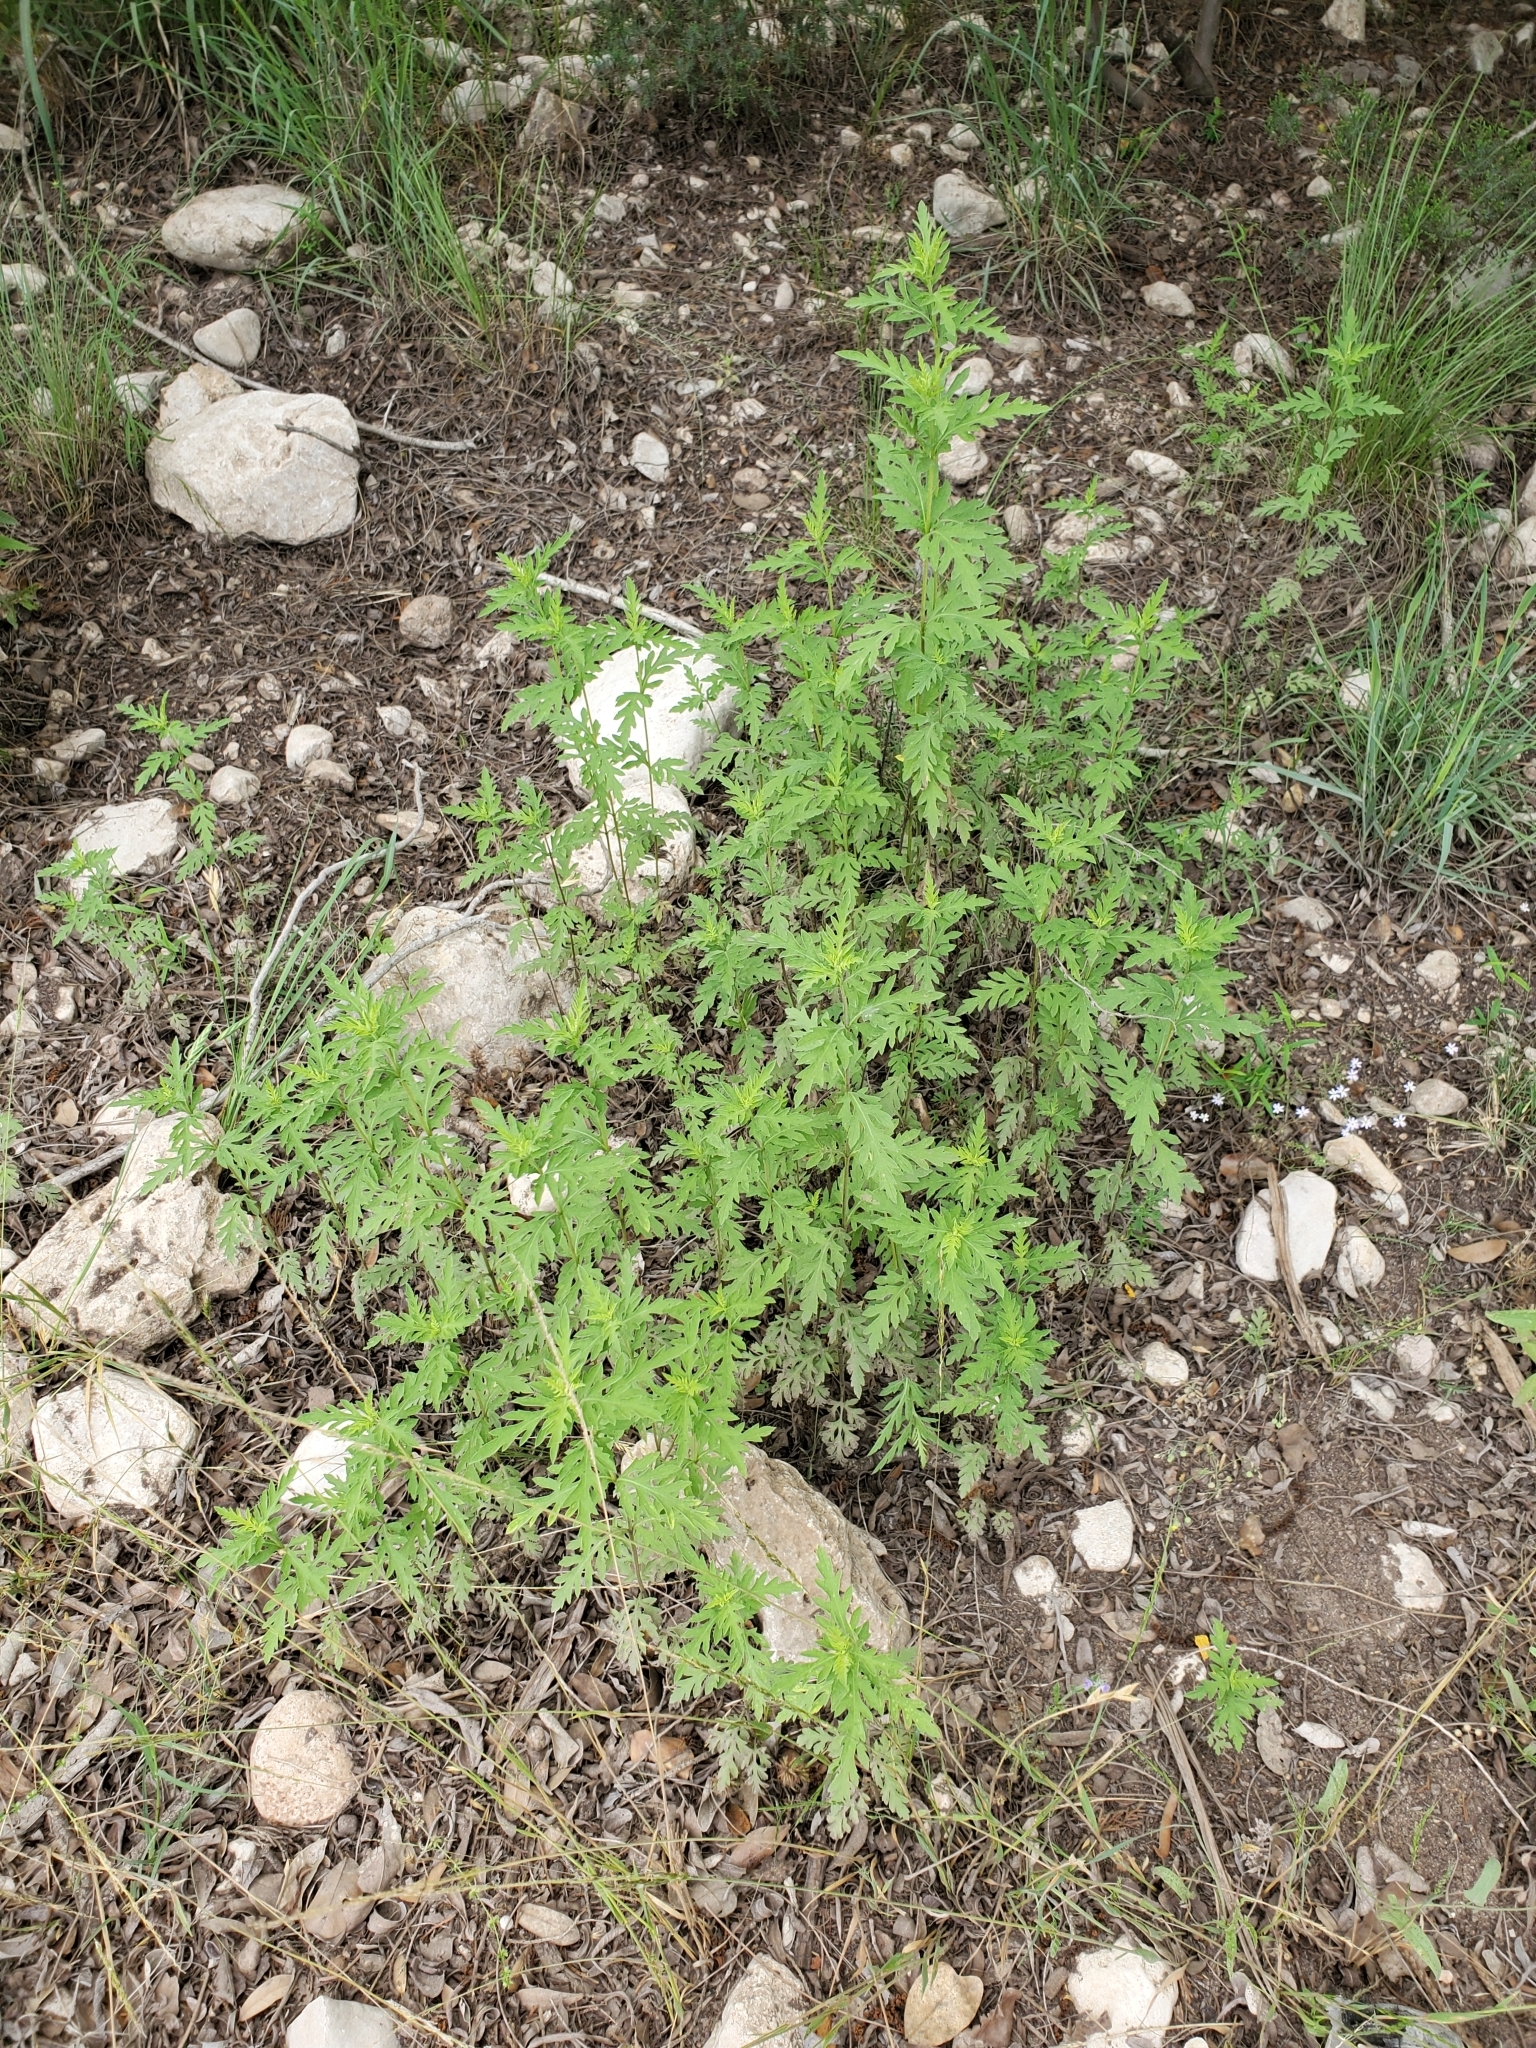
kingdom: Plantae
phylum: Tracheophyta
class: Magnoliopsida
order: Asterales
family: Asteraceae
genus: Ambrosia
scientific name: Ambrosia psilostachya
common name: Perennial ragweed
